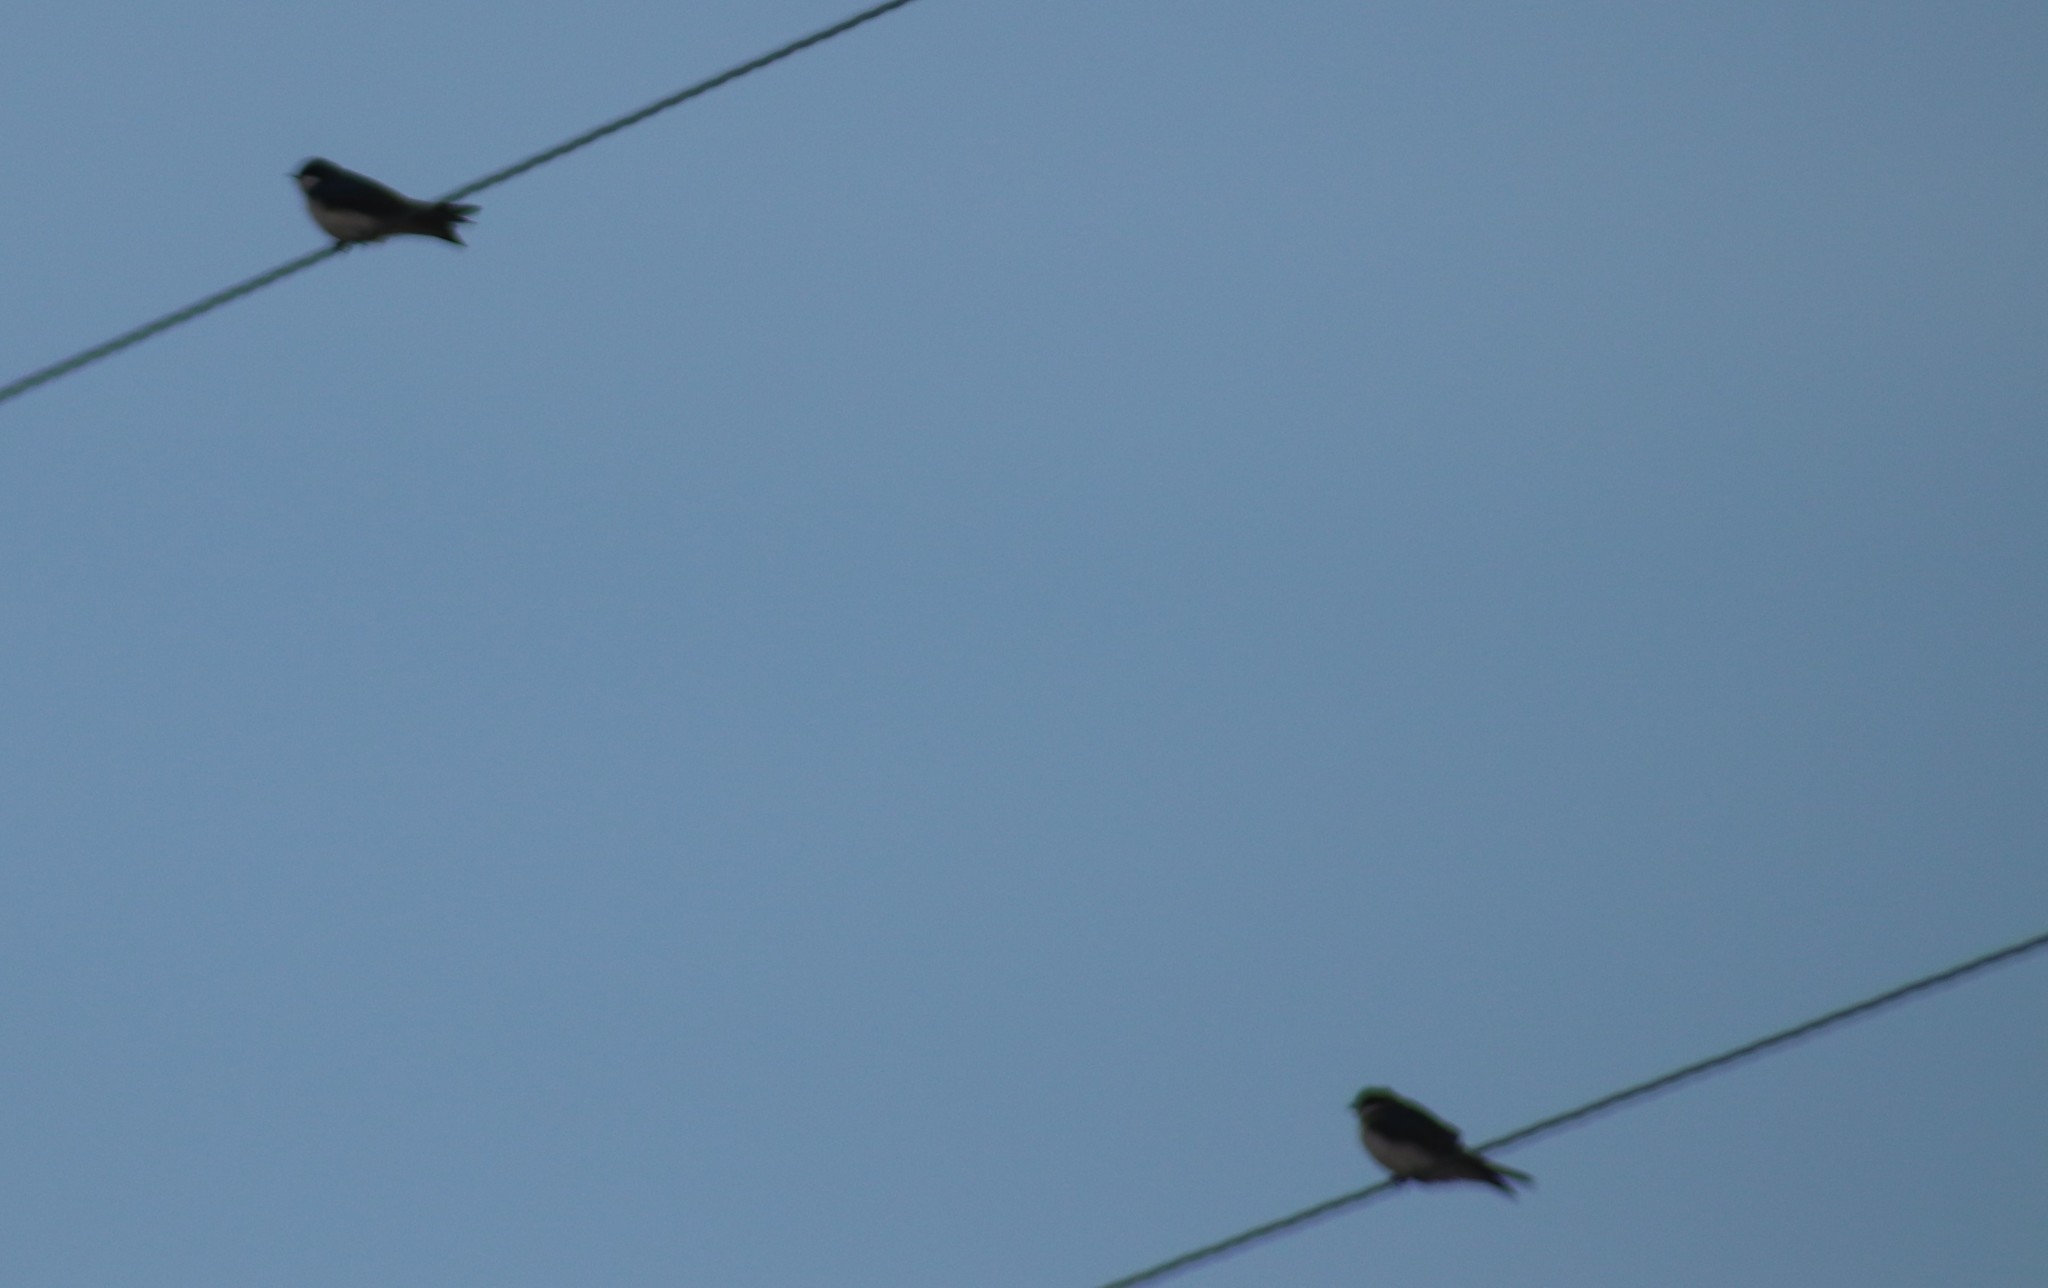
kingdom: Animalia
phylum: Chordata
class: Aves
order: Passeriformes
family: Hirundinidae
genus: Tachycineta
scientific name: Tachycineta bicolor
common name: Tree swallow
